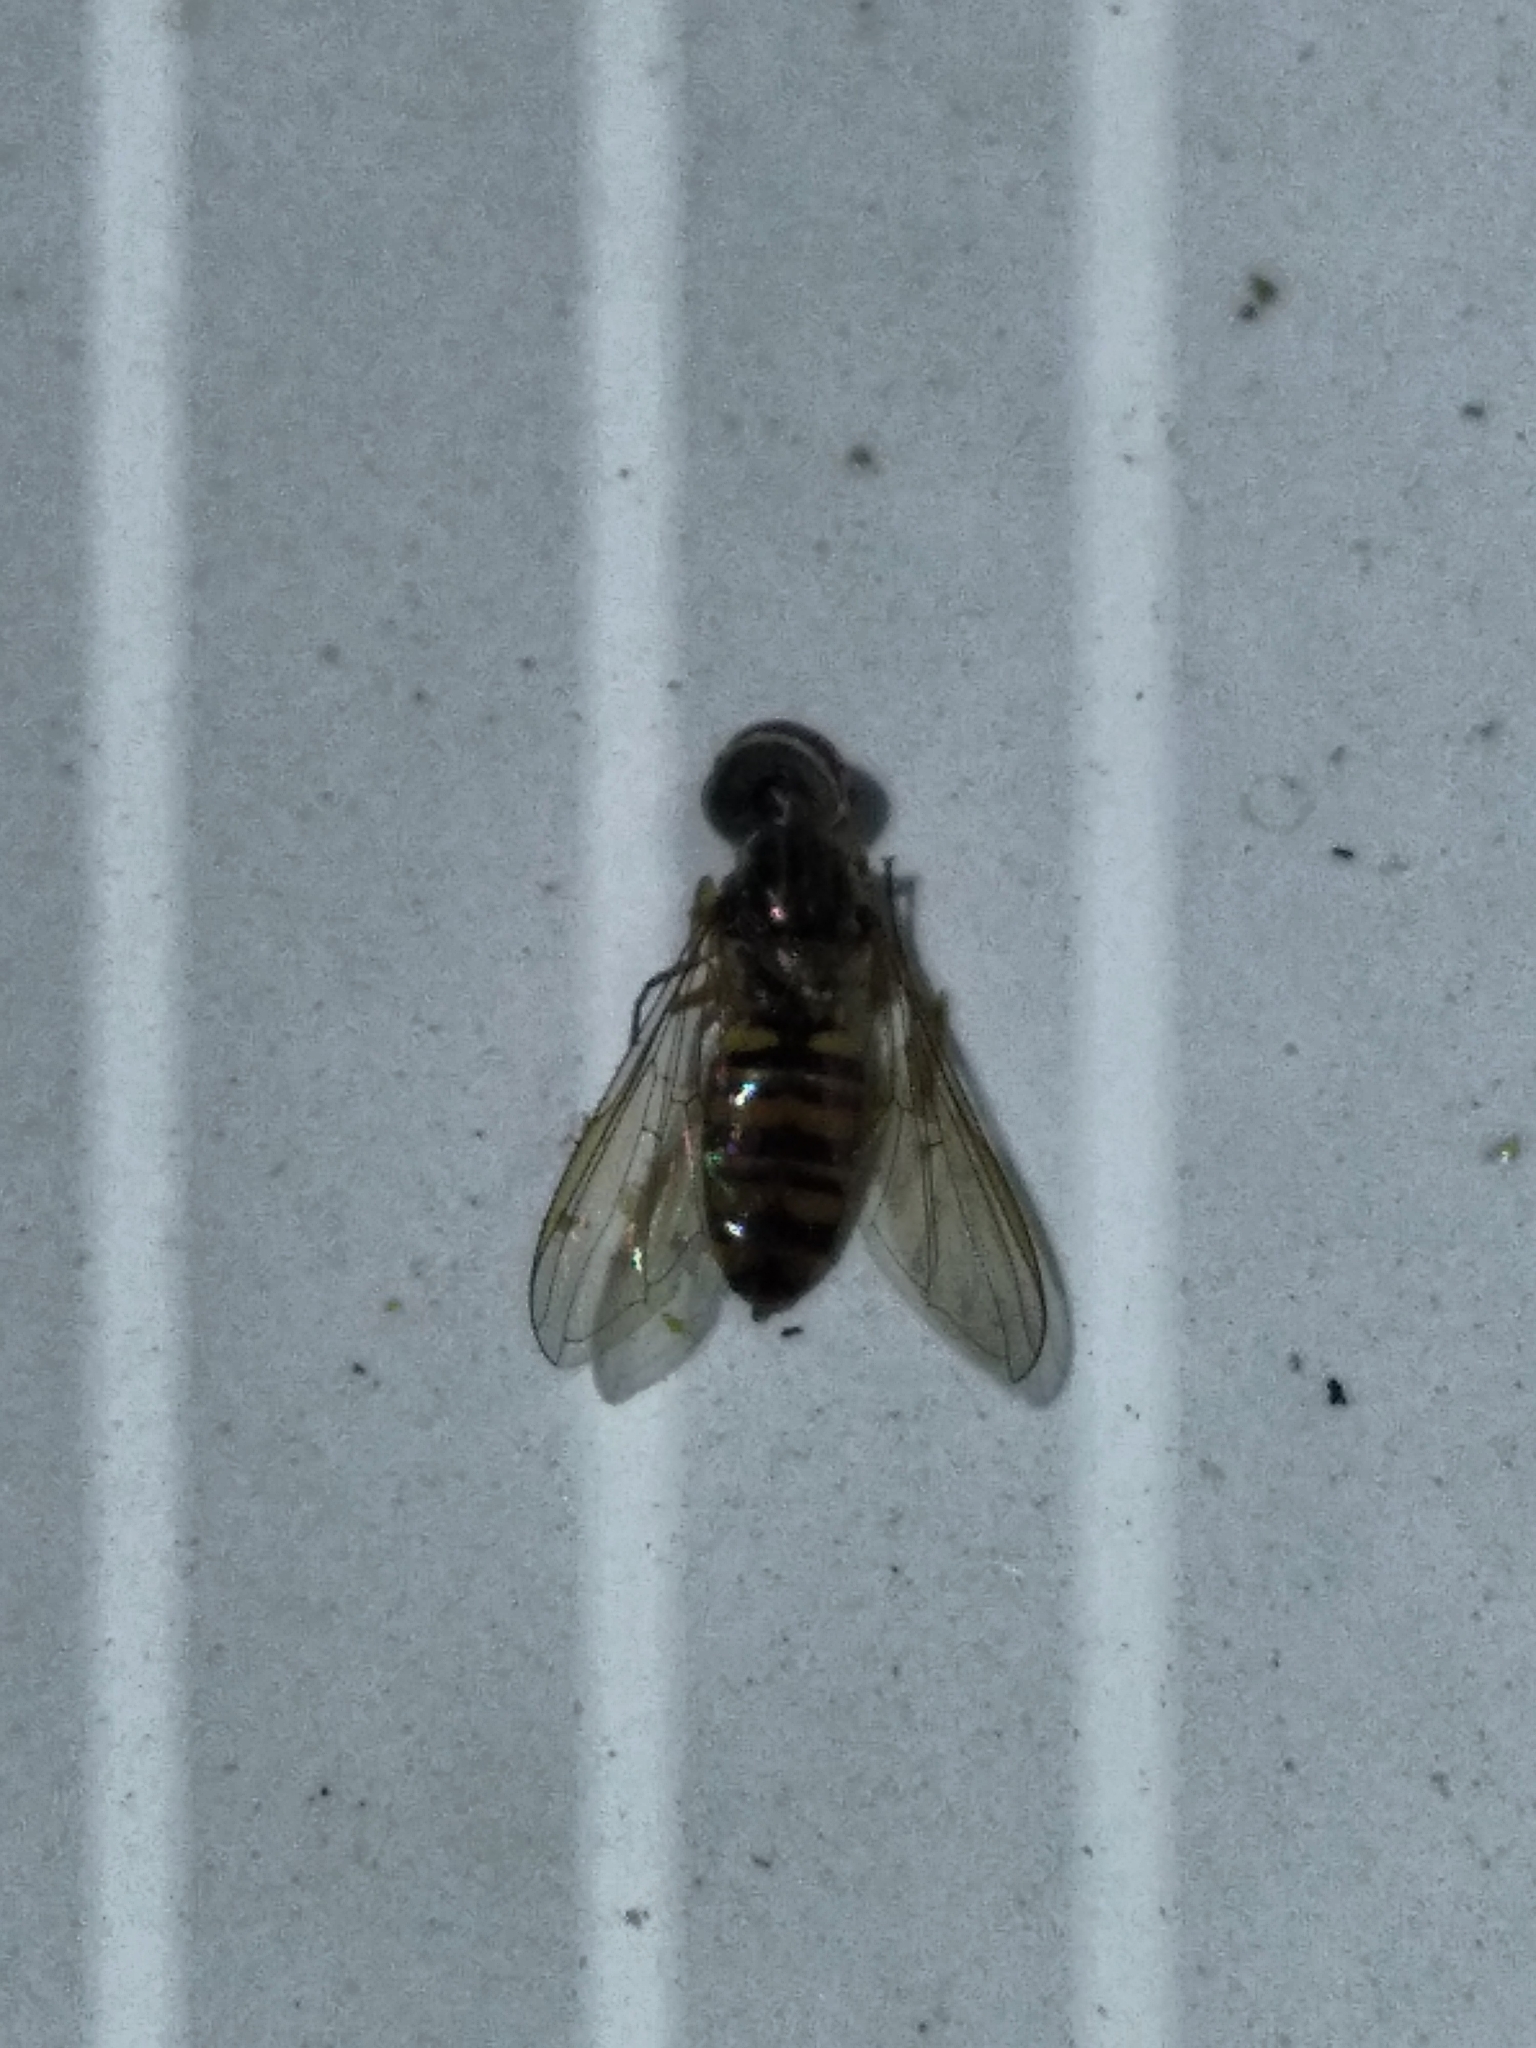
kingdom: Animalia
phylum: Arthropoda
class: Insecta
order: Diptera
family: Syrphidae
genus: Episyrphus
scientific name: Episyrphus balteatus
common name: Marmalade hoverfly
